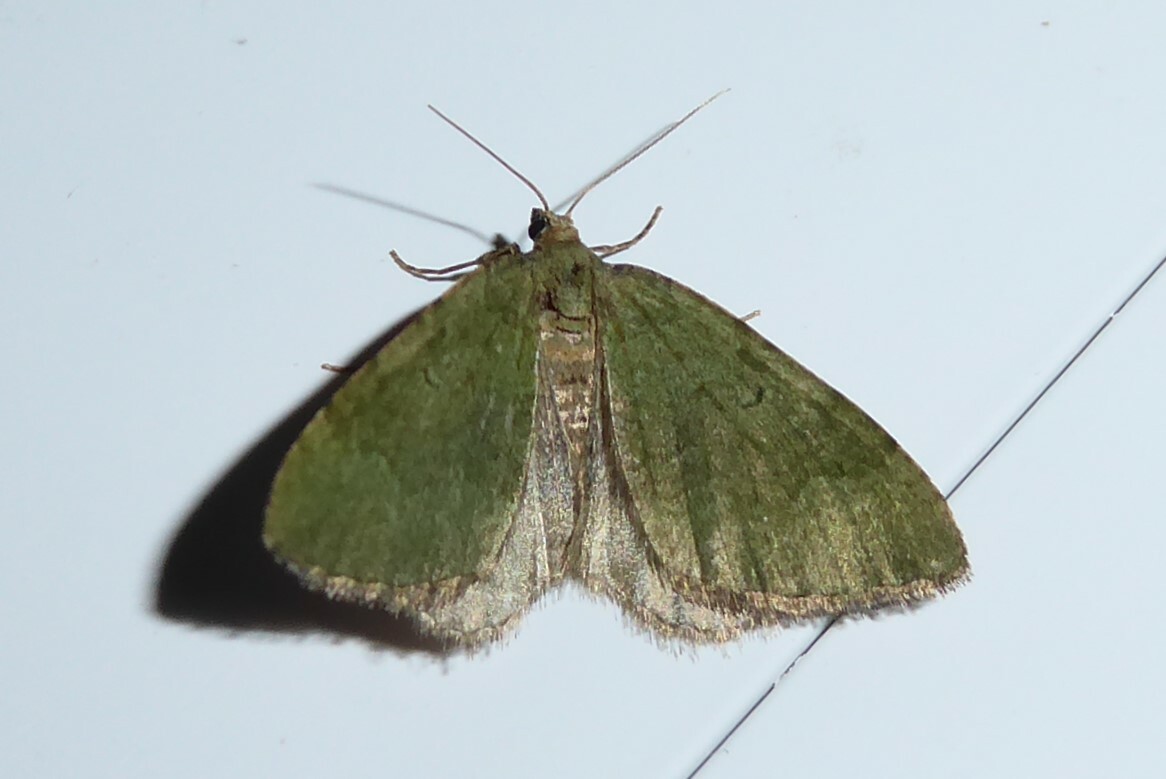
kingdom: Animalia
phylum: Arthropoda
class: Insecta
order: Lepidoptera
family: Geometridae
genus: Epyaxa
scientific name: Epyaxa rosearia
